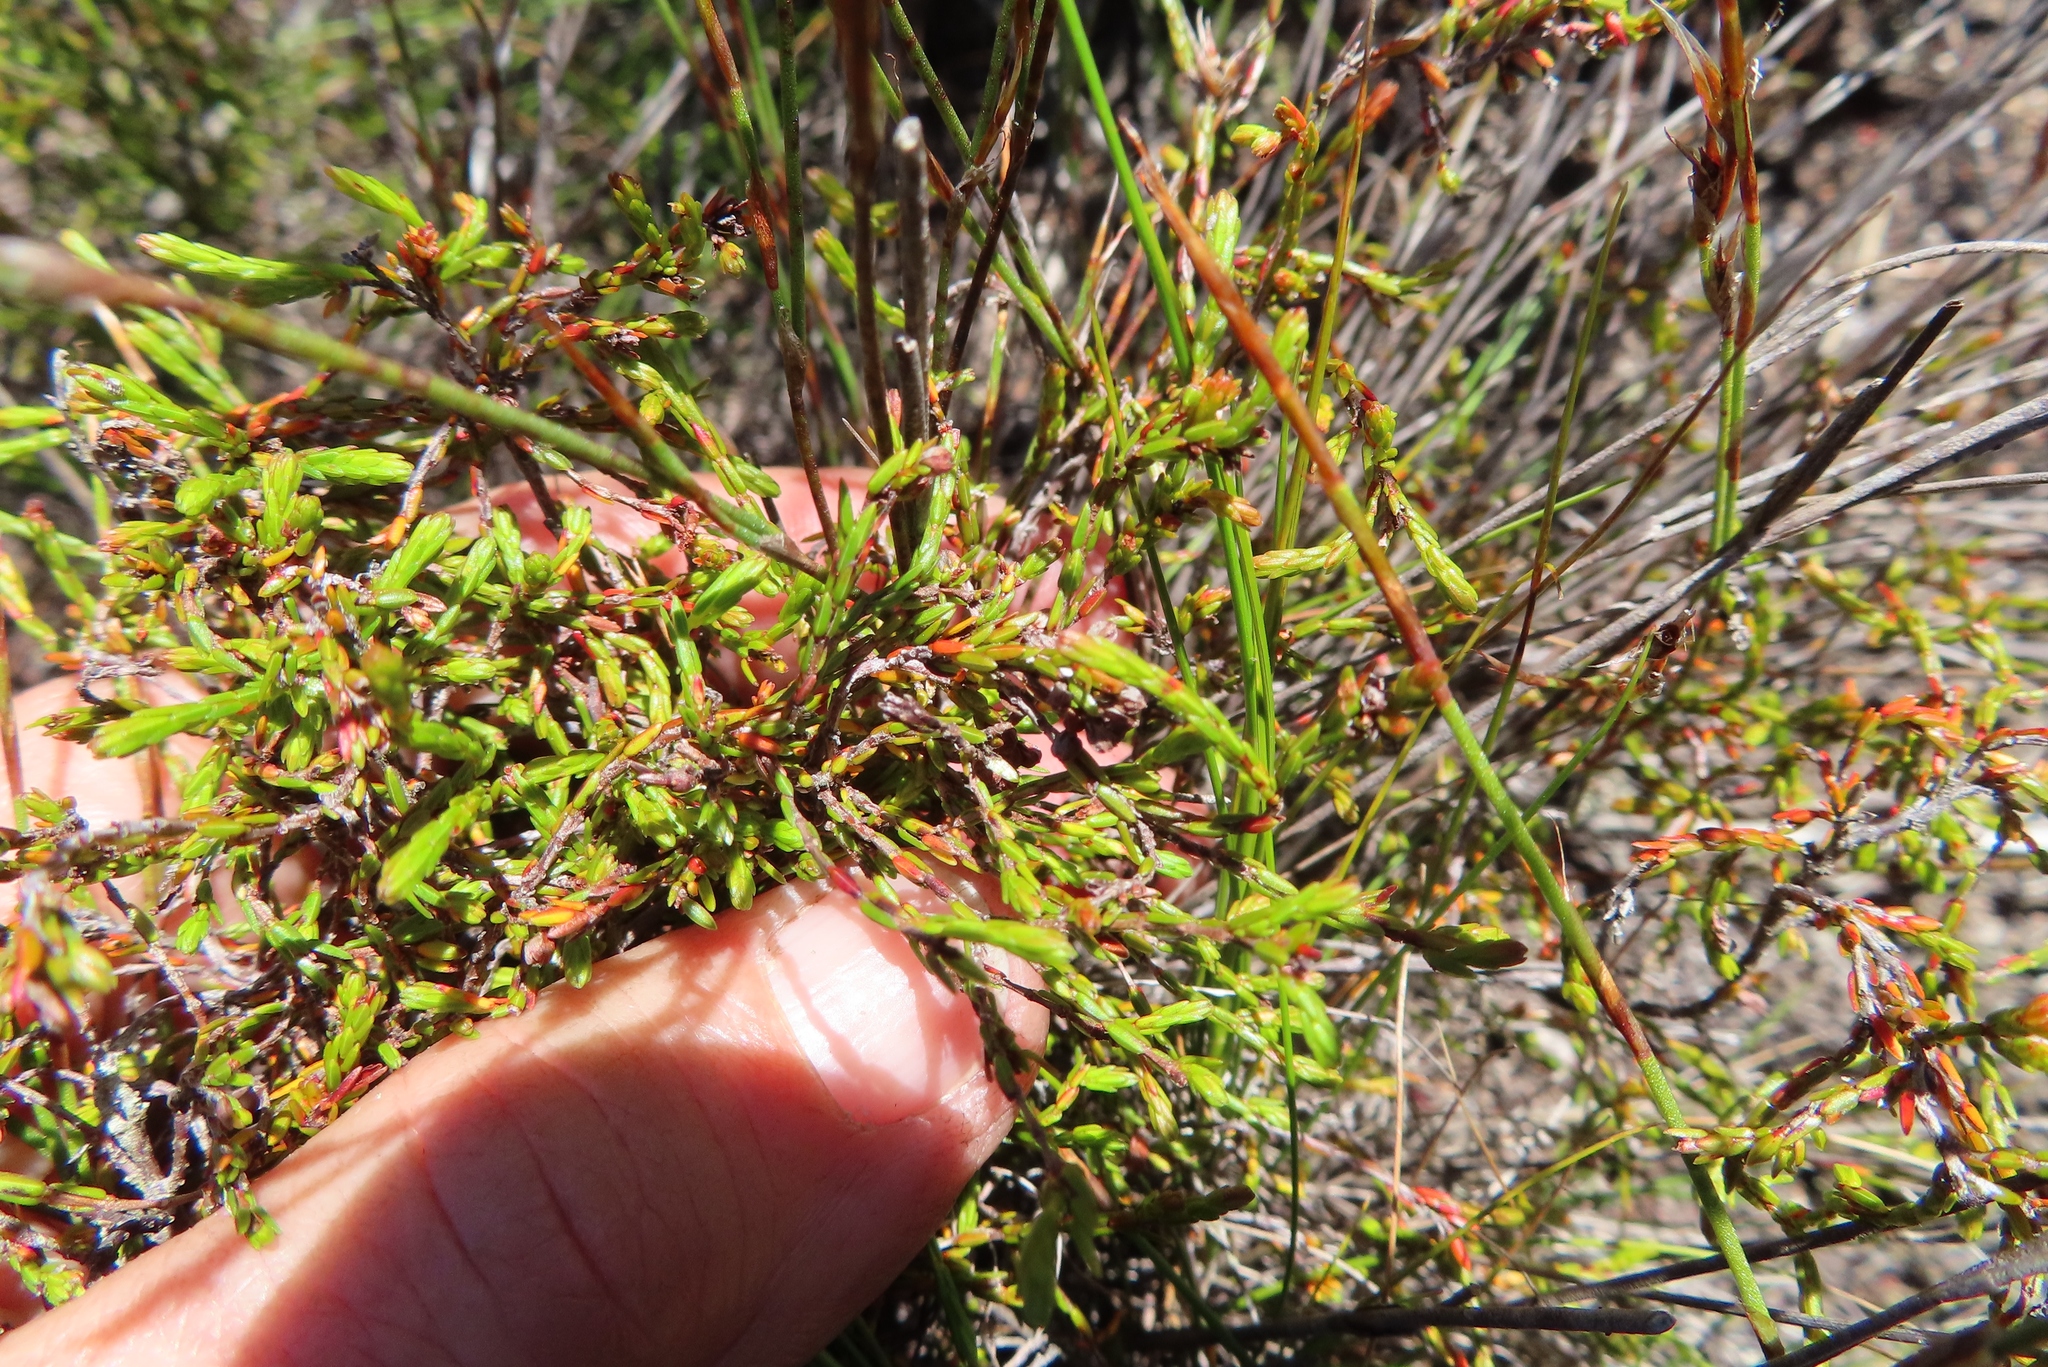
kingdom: Plantae
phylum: Tracheophyta
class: Magnoliopsida
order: Ericales
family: Ericaceae
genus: Erica
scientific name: Erica multiflexuosa
